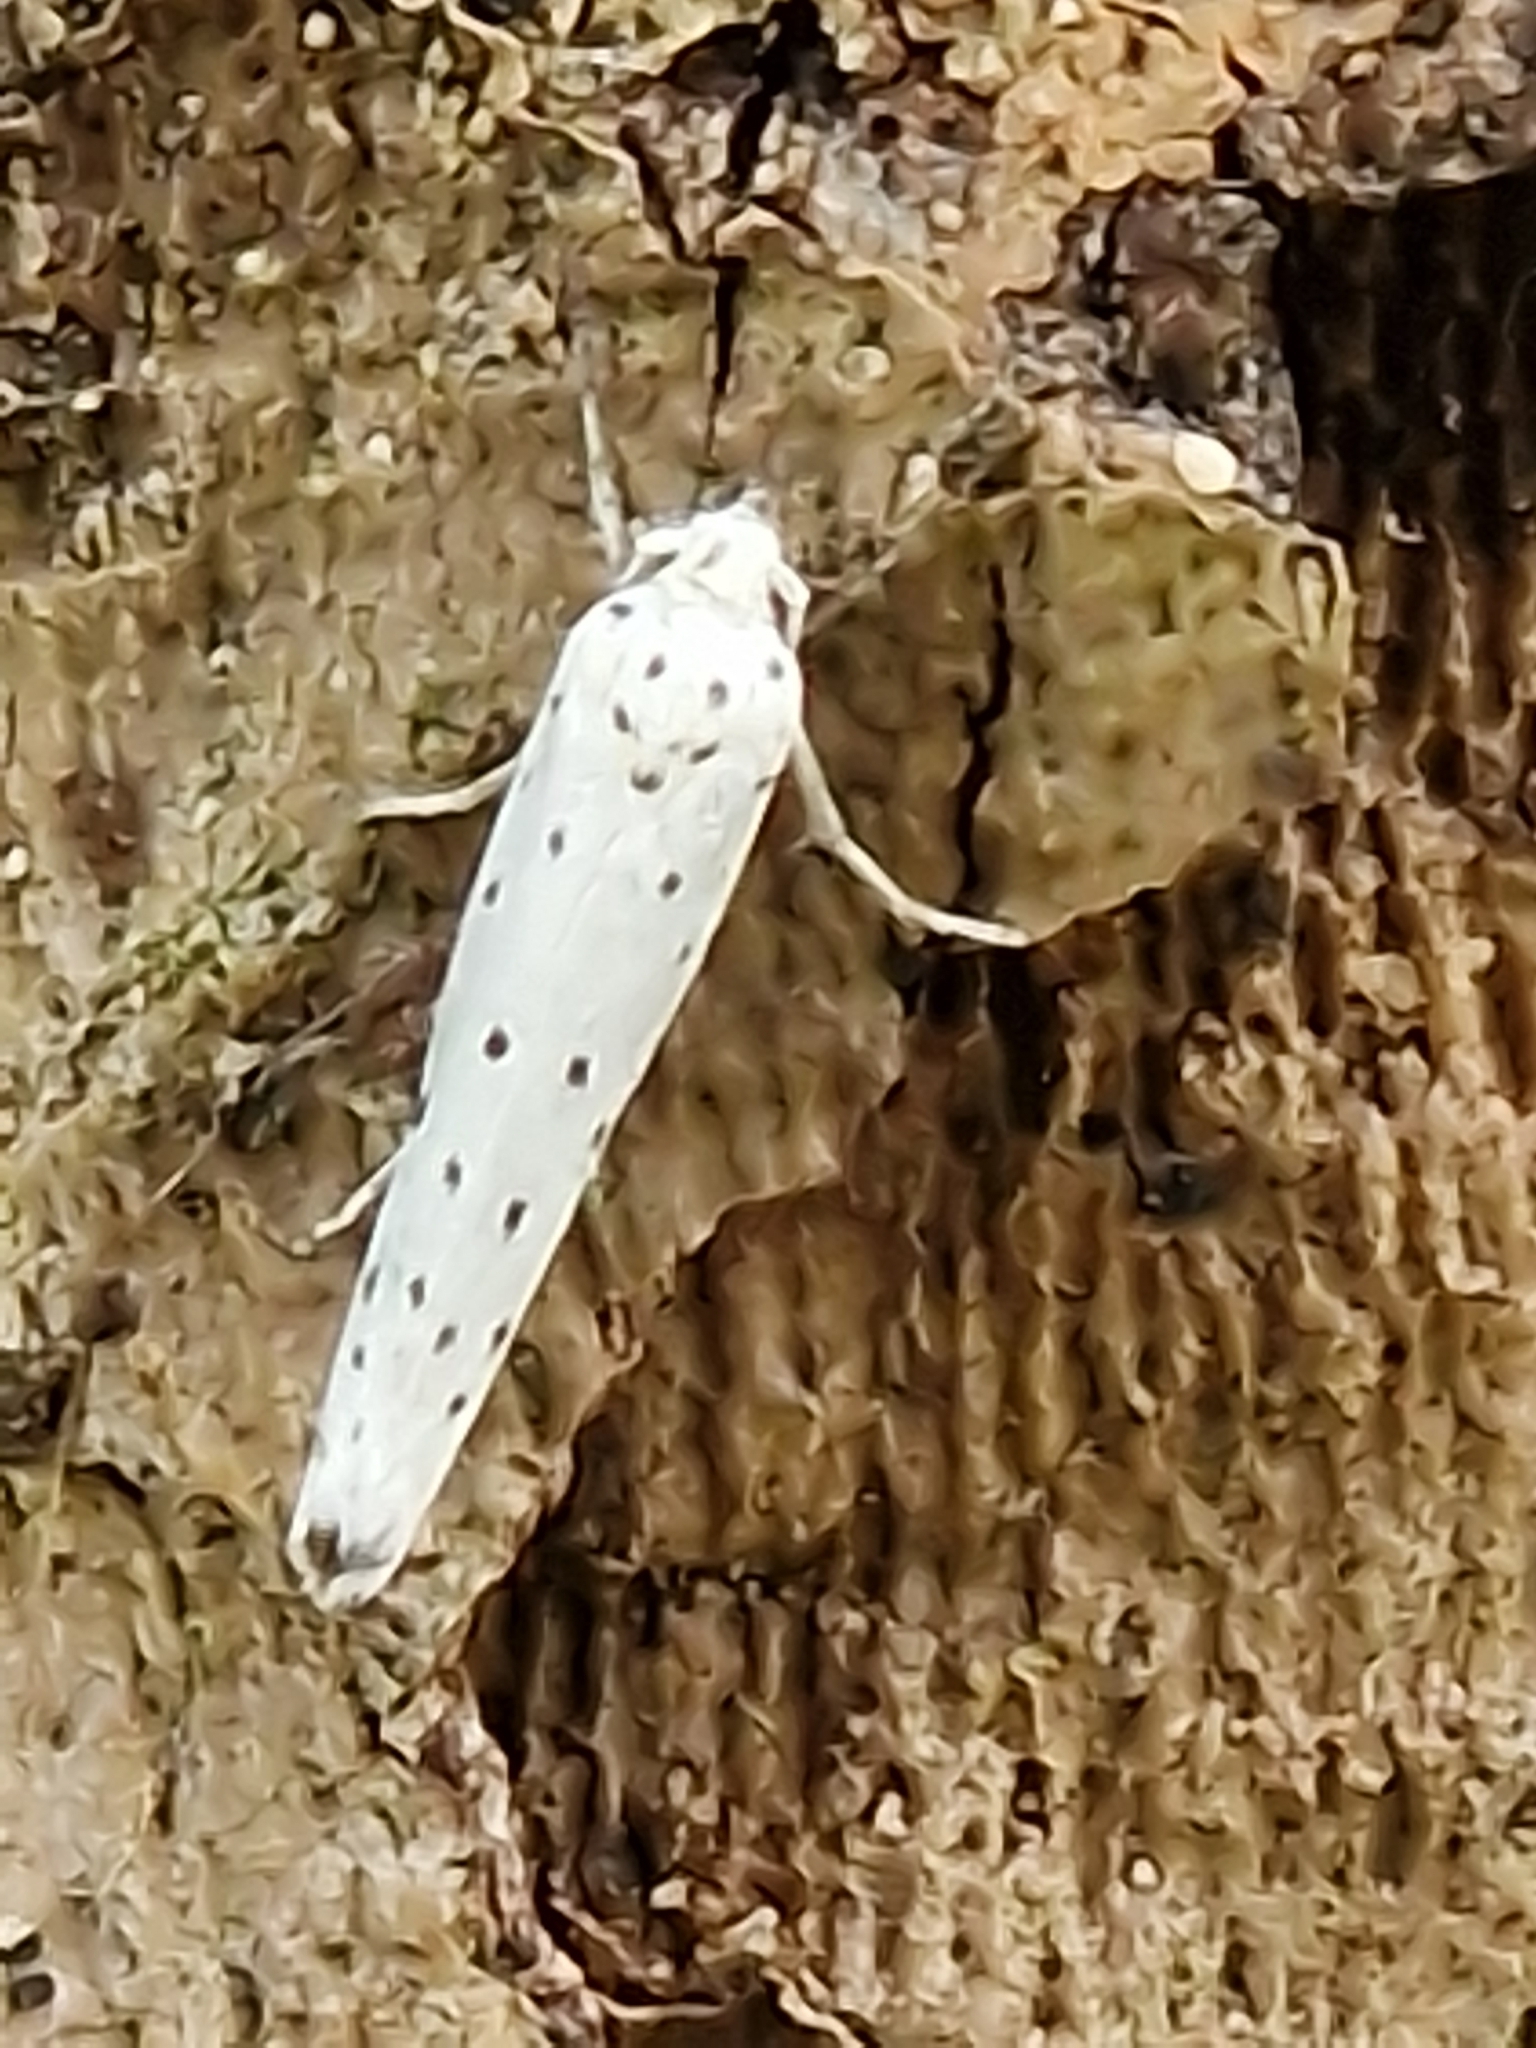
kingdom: Animalia
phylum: Arthropoda
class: Insecta
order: Lepidoptera
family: Yponomeutidae
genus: Yponomeuta
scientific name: Yponomeuta
